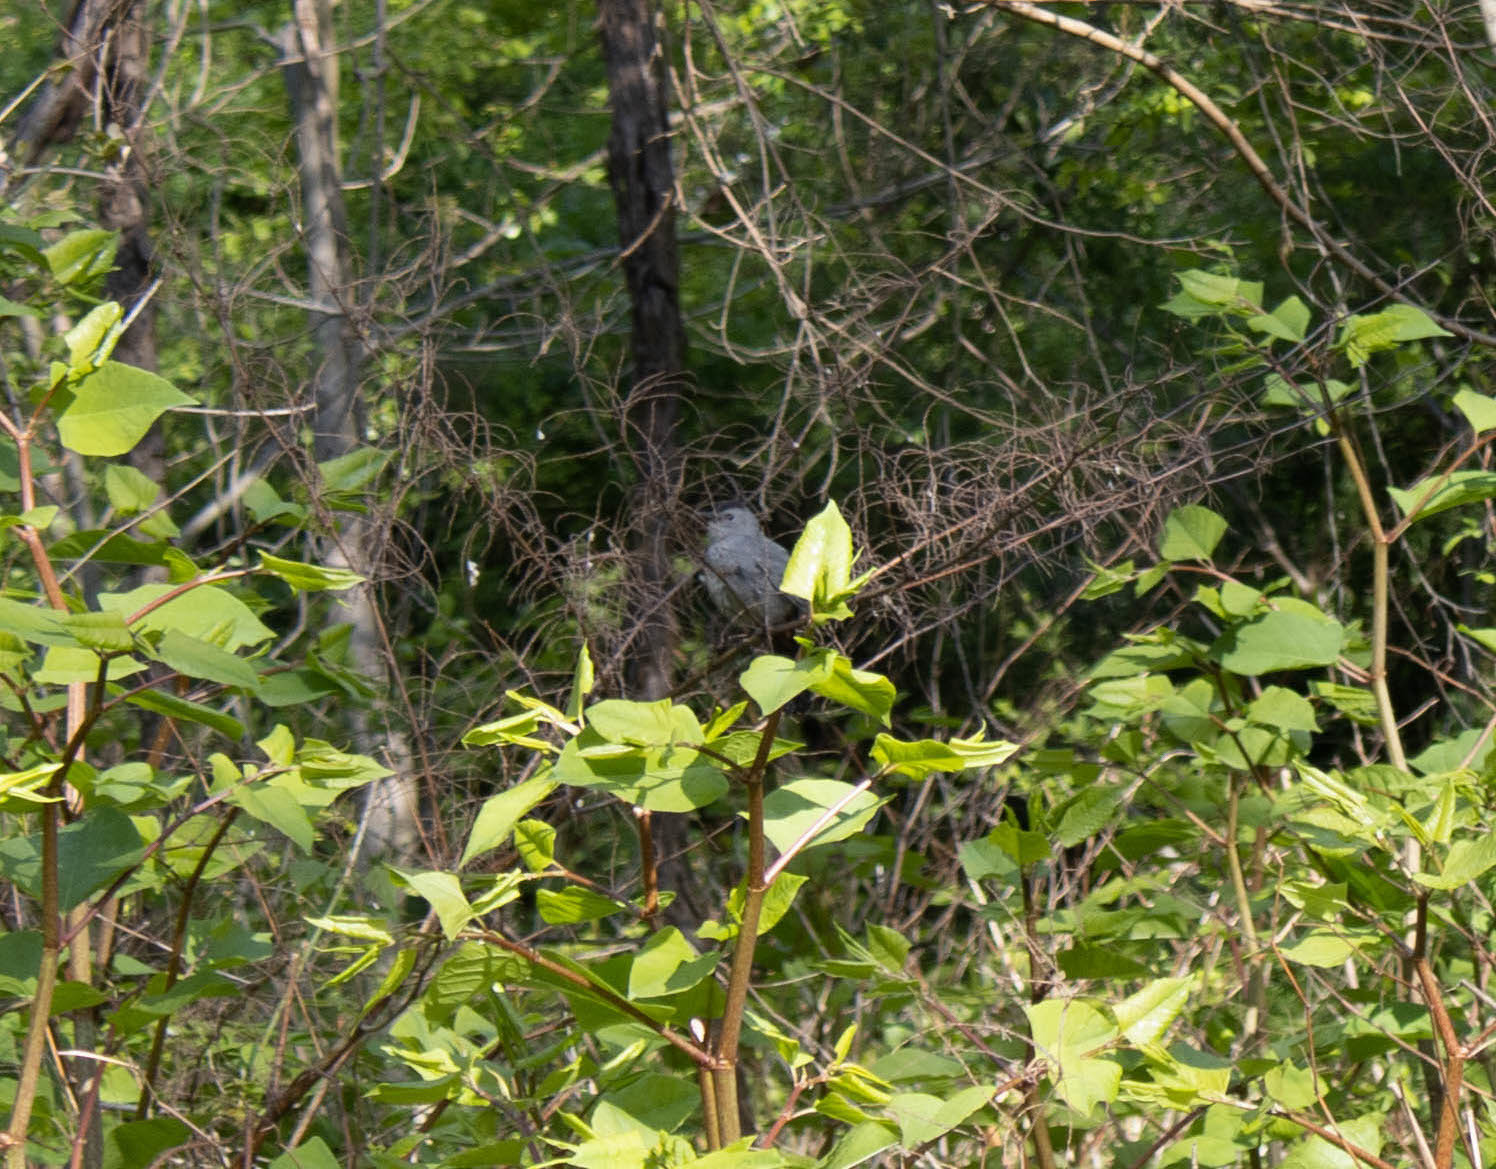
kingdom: Animalia
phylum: Chordata
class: Aves
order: Passeriformes
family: Mimidae
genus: Dumetella
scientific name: Dumetella carolinensis
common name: Gray catbird
